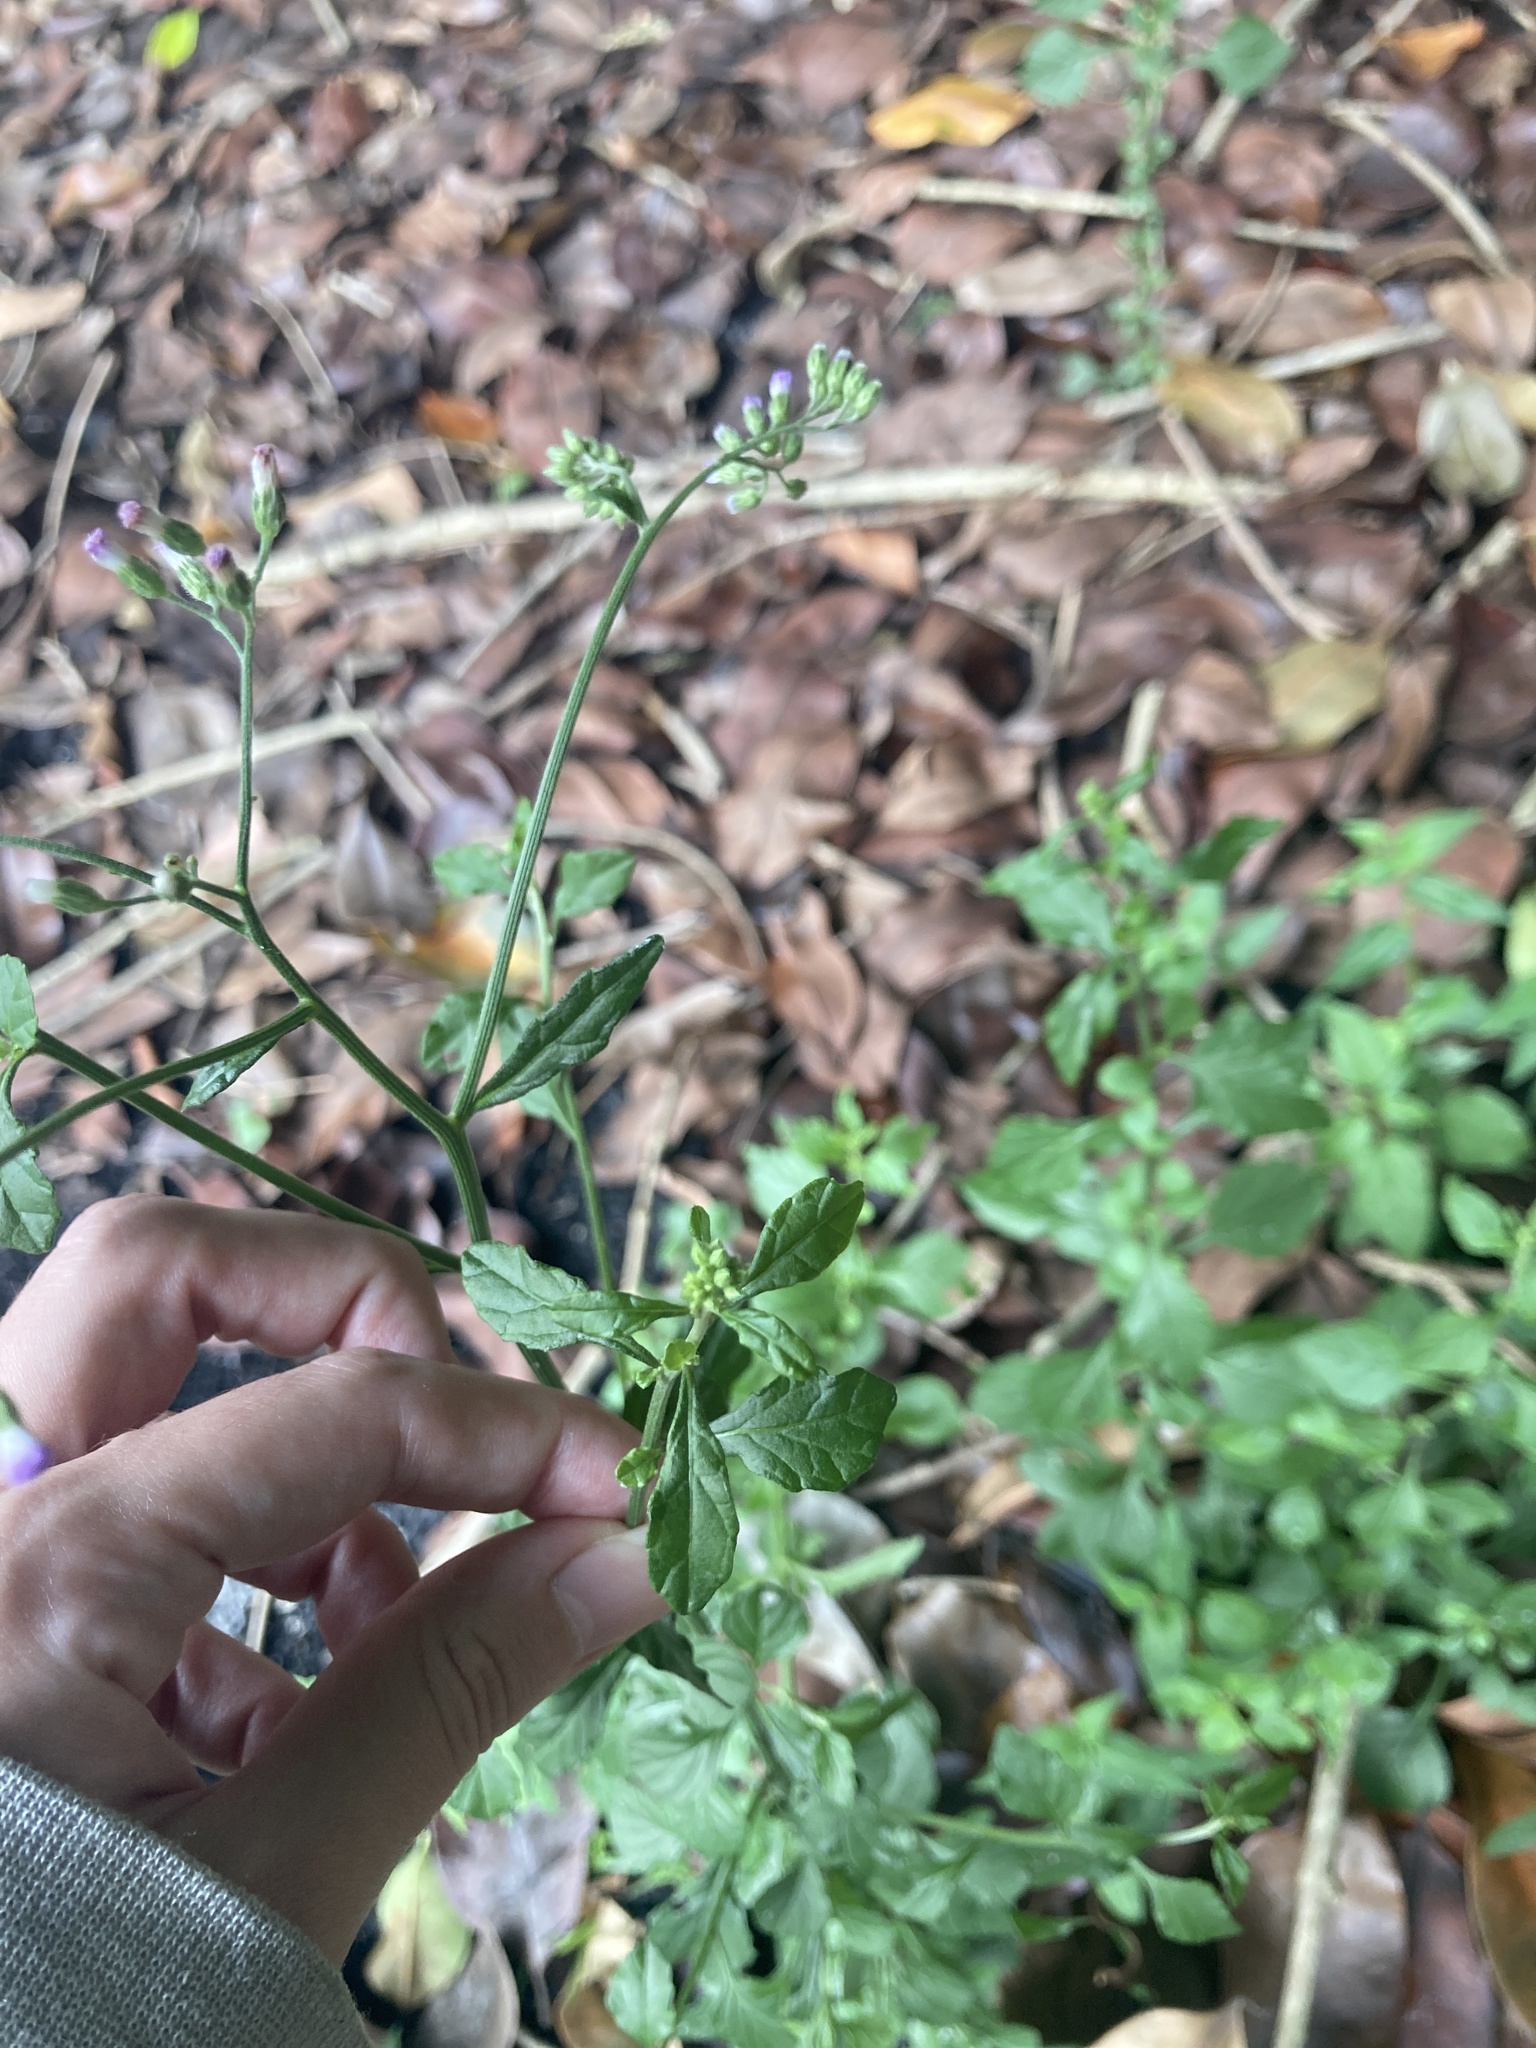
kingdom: Plantae
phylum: Tracheophyta
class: Magnoliopsida
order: Asterales
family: Asteraceae
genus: Cyanthillium
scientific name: Cyanthillium cinereum
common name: Little ironweed
